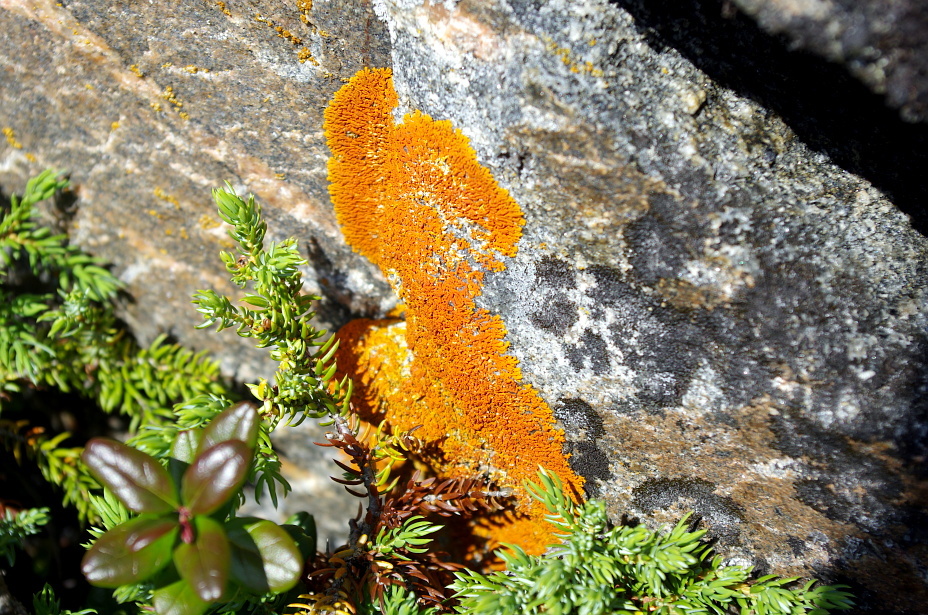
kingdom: Fungi
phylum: Ascomycota
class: Lecanoromycetes
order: Teloschistales
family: Teloschistaceae
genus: Xanthoria
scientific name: Xanthoria elegans
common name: Elegant sunburst lichen
